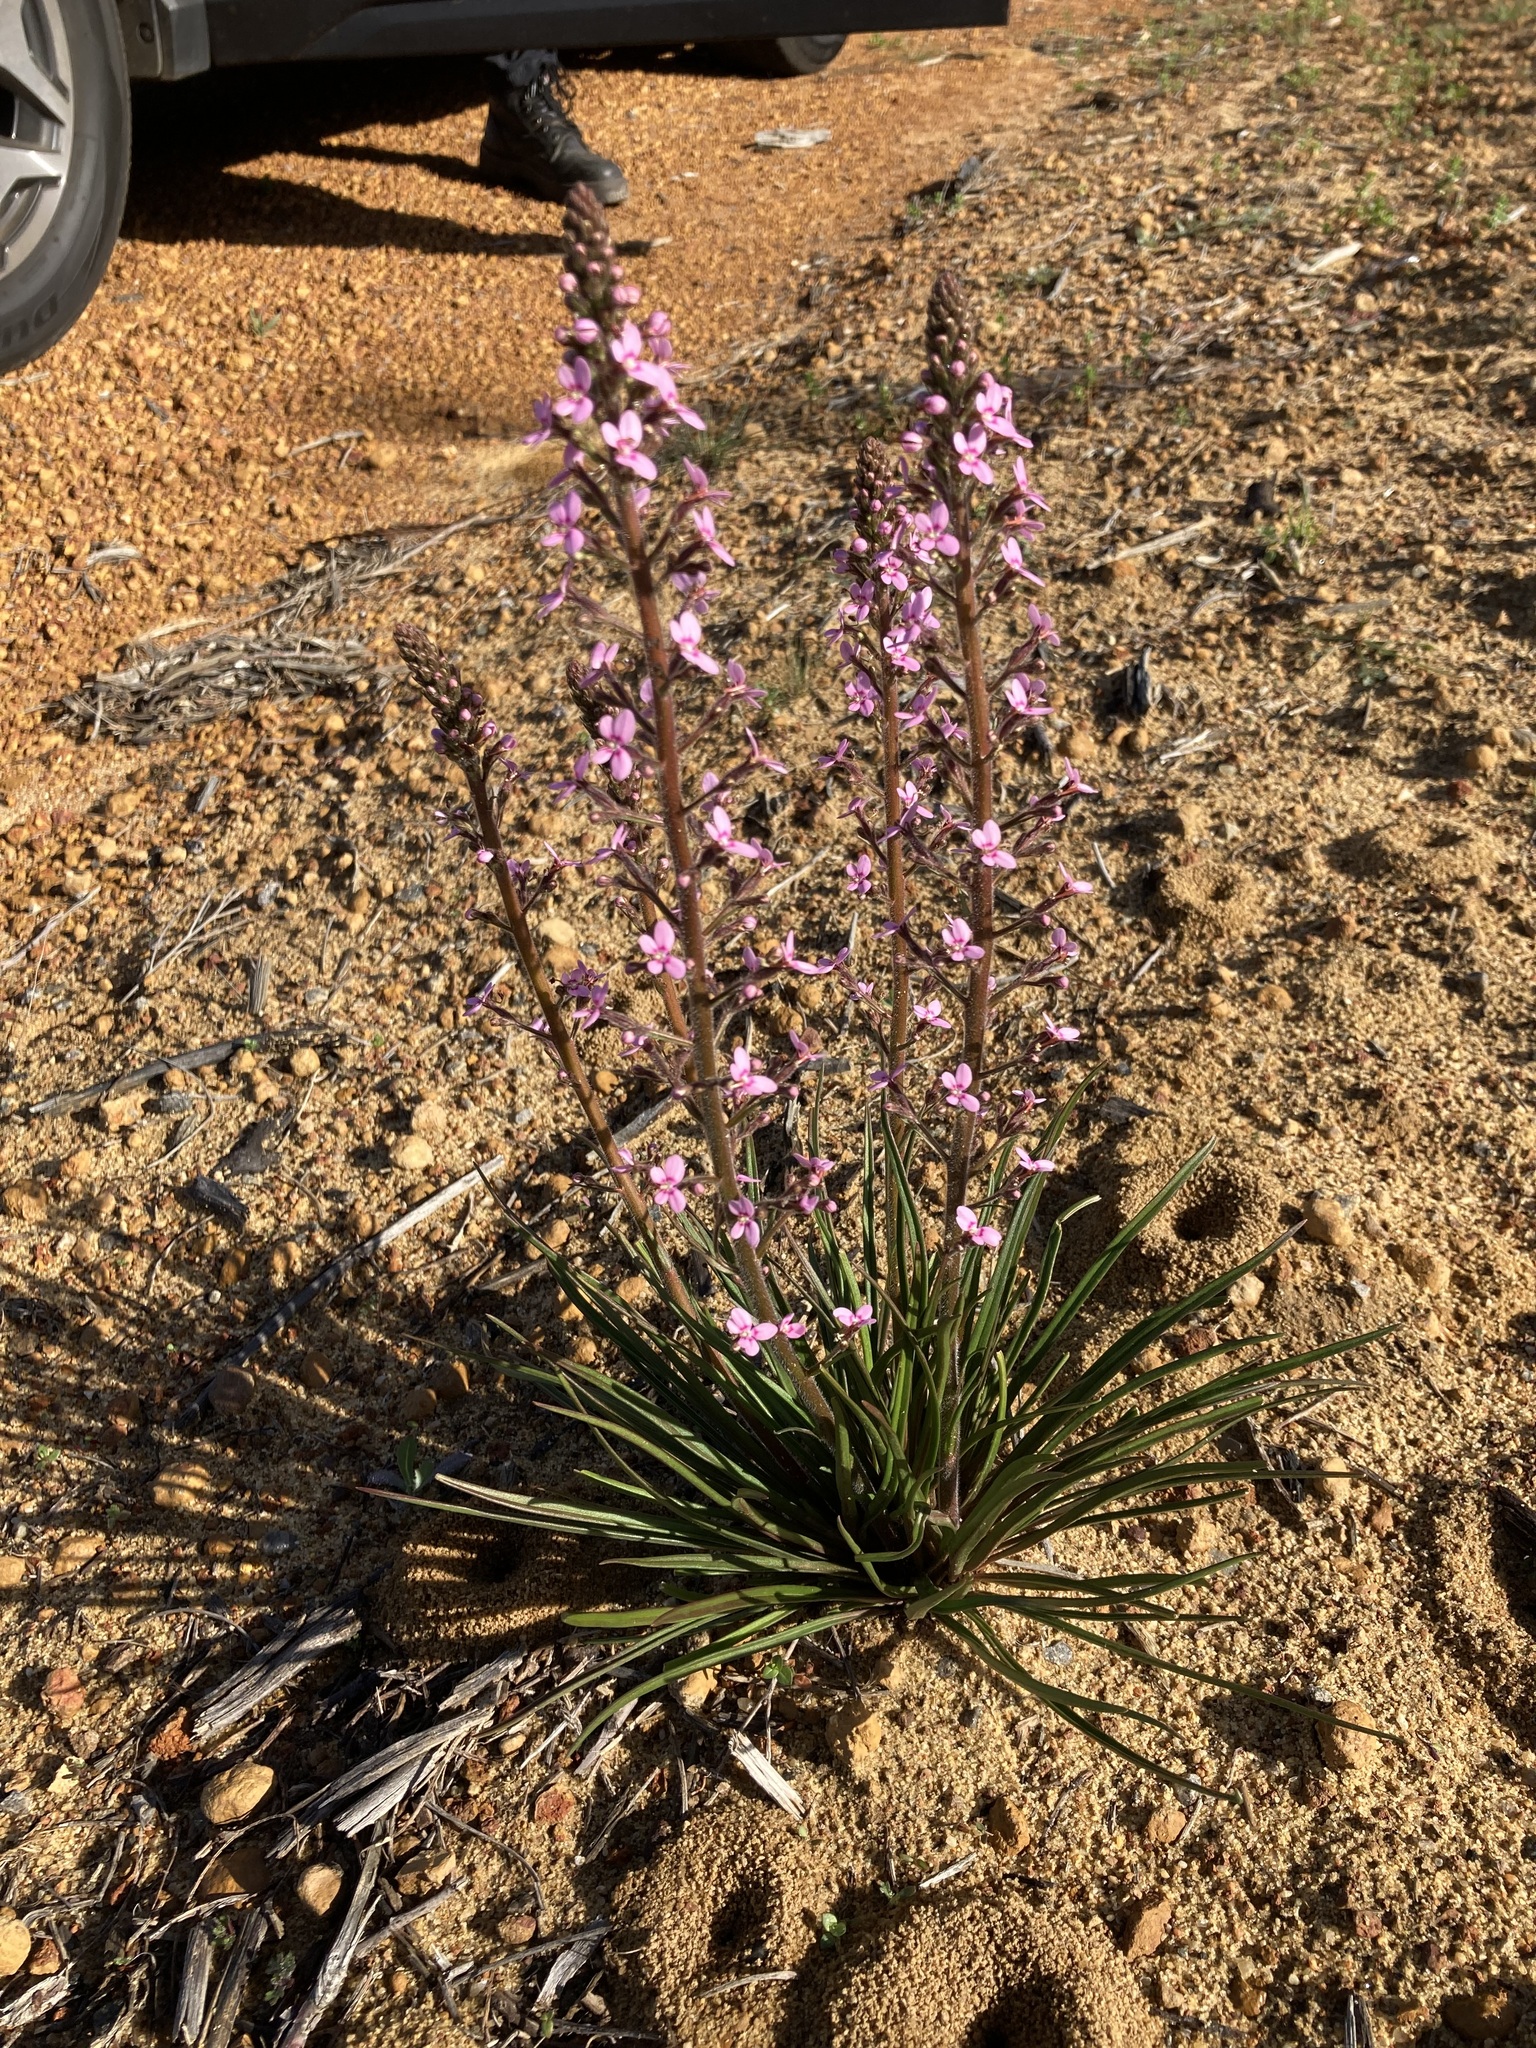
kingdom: Plantae
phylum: Tracheophyta
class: Magnoliopsida
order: Asterales
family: Stylidiaceae
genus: Stylidium
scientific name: Stylidium elongatum
